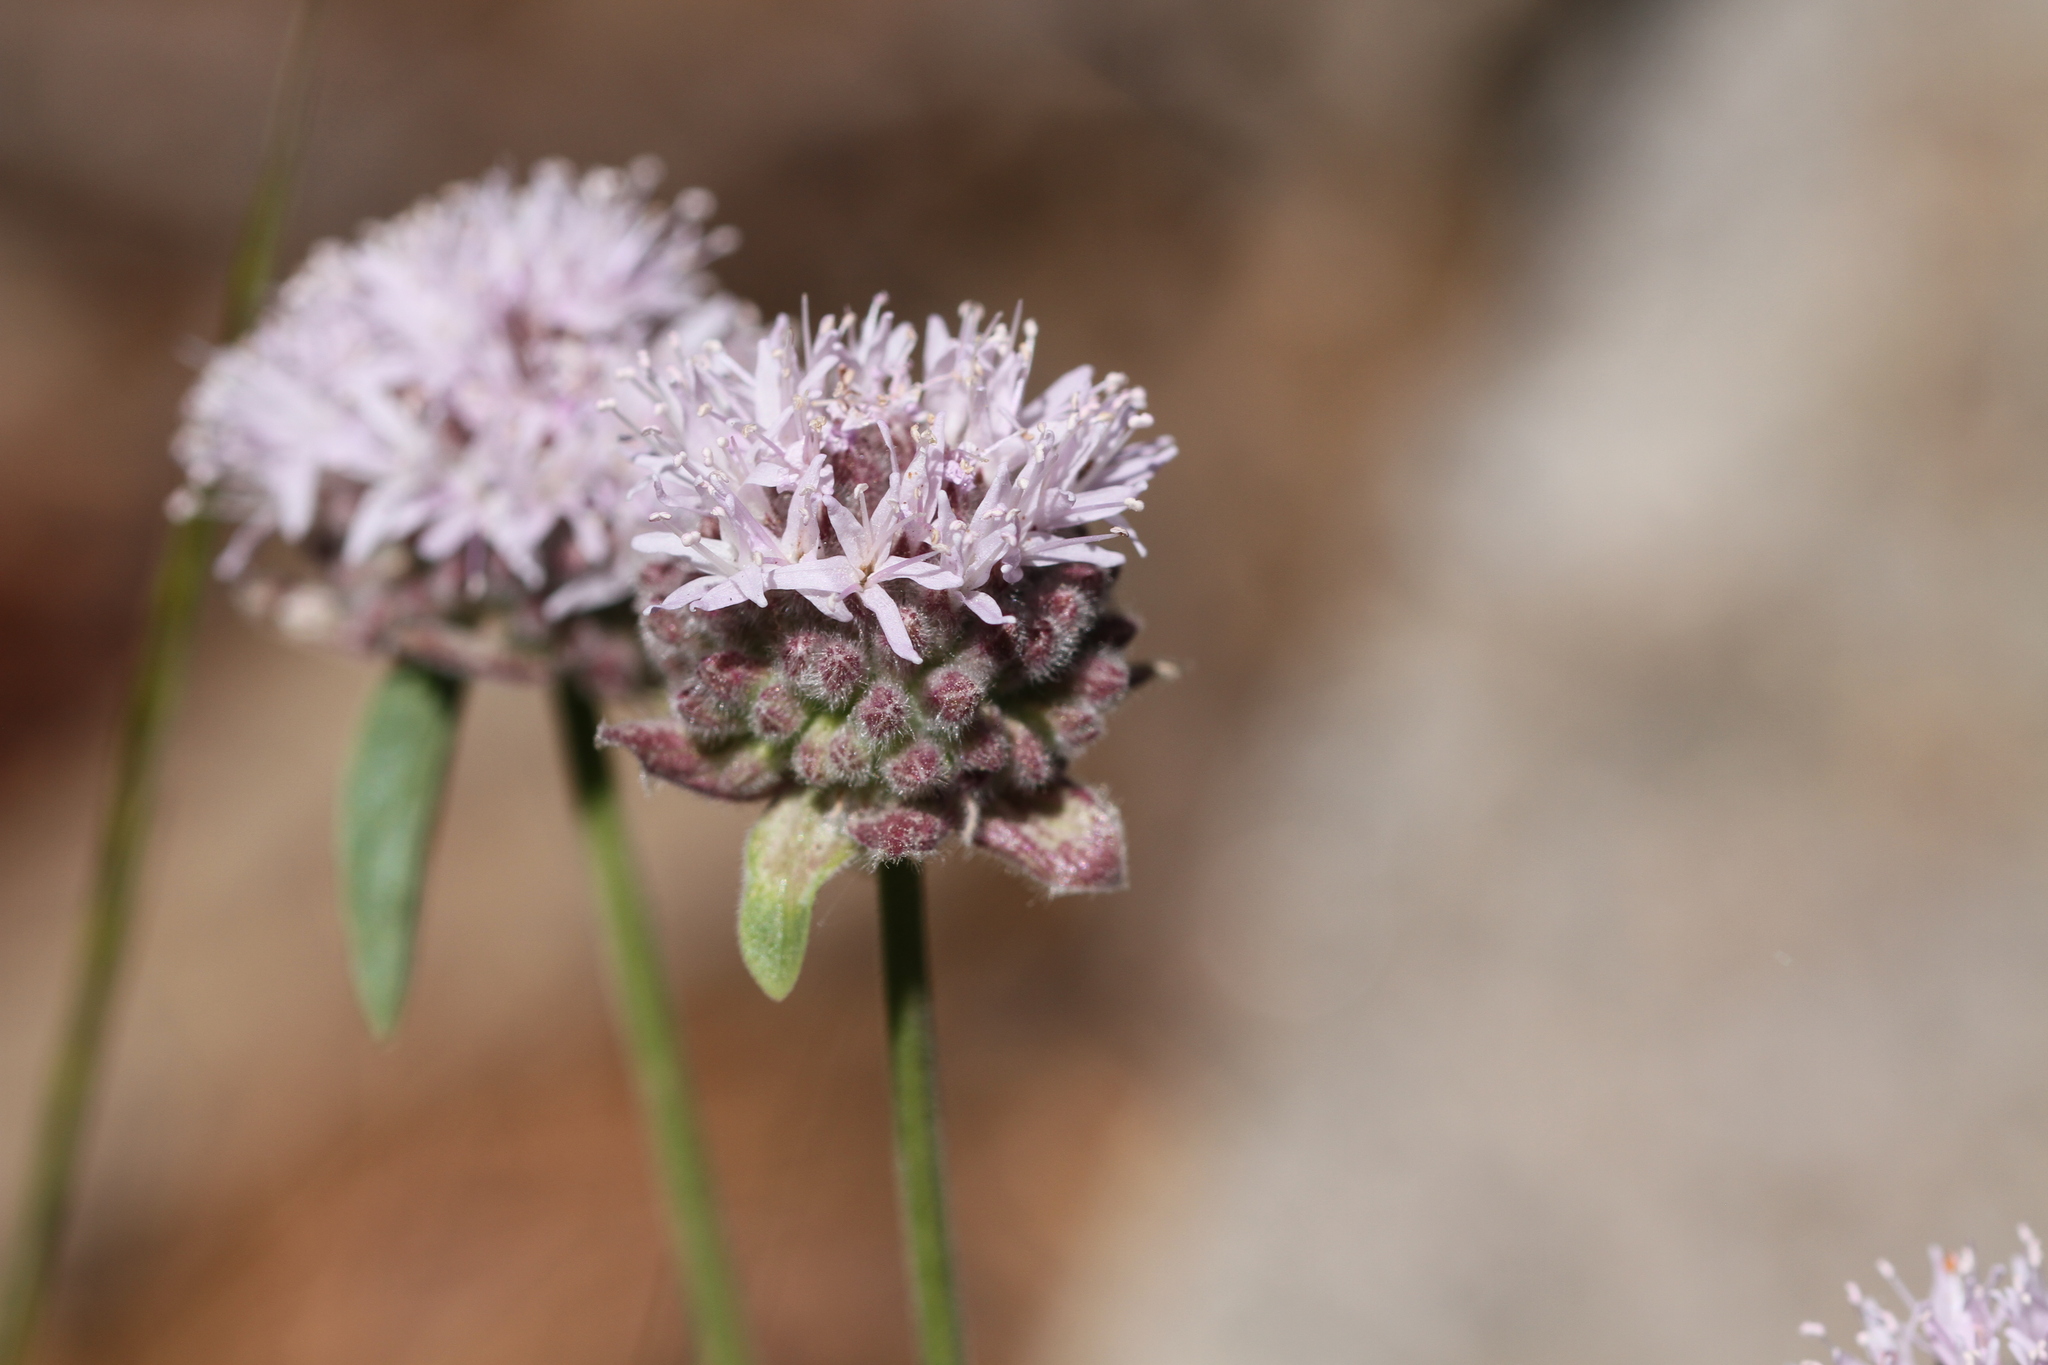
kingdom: Plantae
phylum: Tracheophyta
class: Magnoliopsida
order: Lamiales
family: Lamiaceae
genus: Monardella
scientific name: Monardella odoratissima
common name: Pacific monardella
